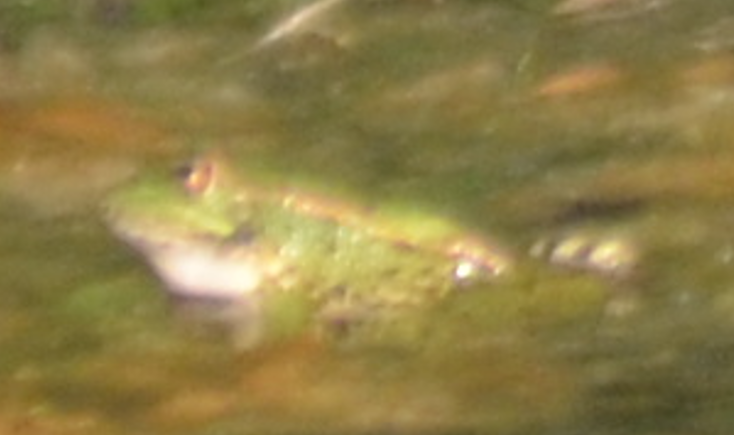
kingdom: Animalia
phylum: Chordata
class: Amphibia
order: Anura
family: Ranidae
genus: Pelophylax
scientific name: Pelophylax perezi
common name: Perez's frog
